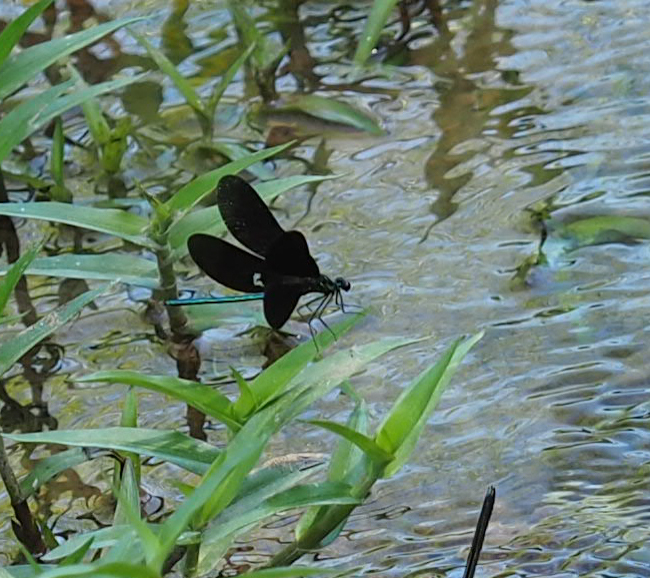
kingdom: Animalia
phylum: Arthropoda
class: Insecta
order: Odonata
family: Calopterygidae
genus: Calopteryx
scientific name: Calopteryx maculata
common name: Ebony jewelwing
